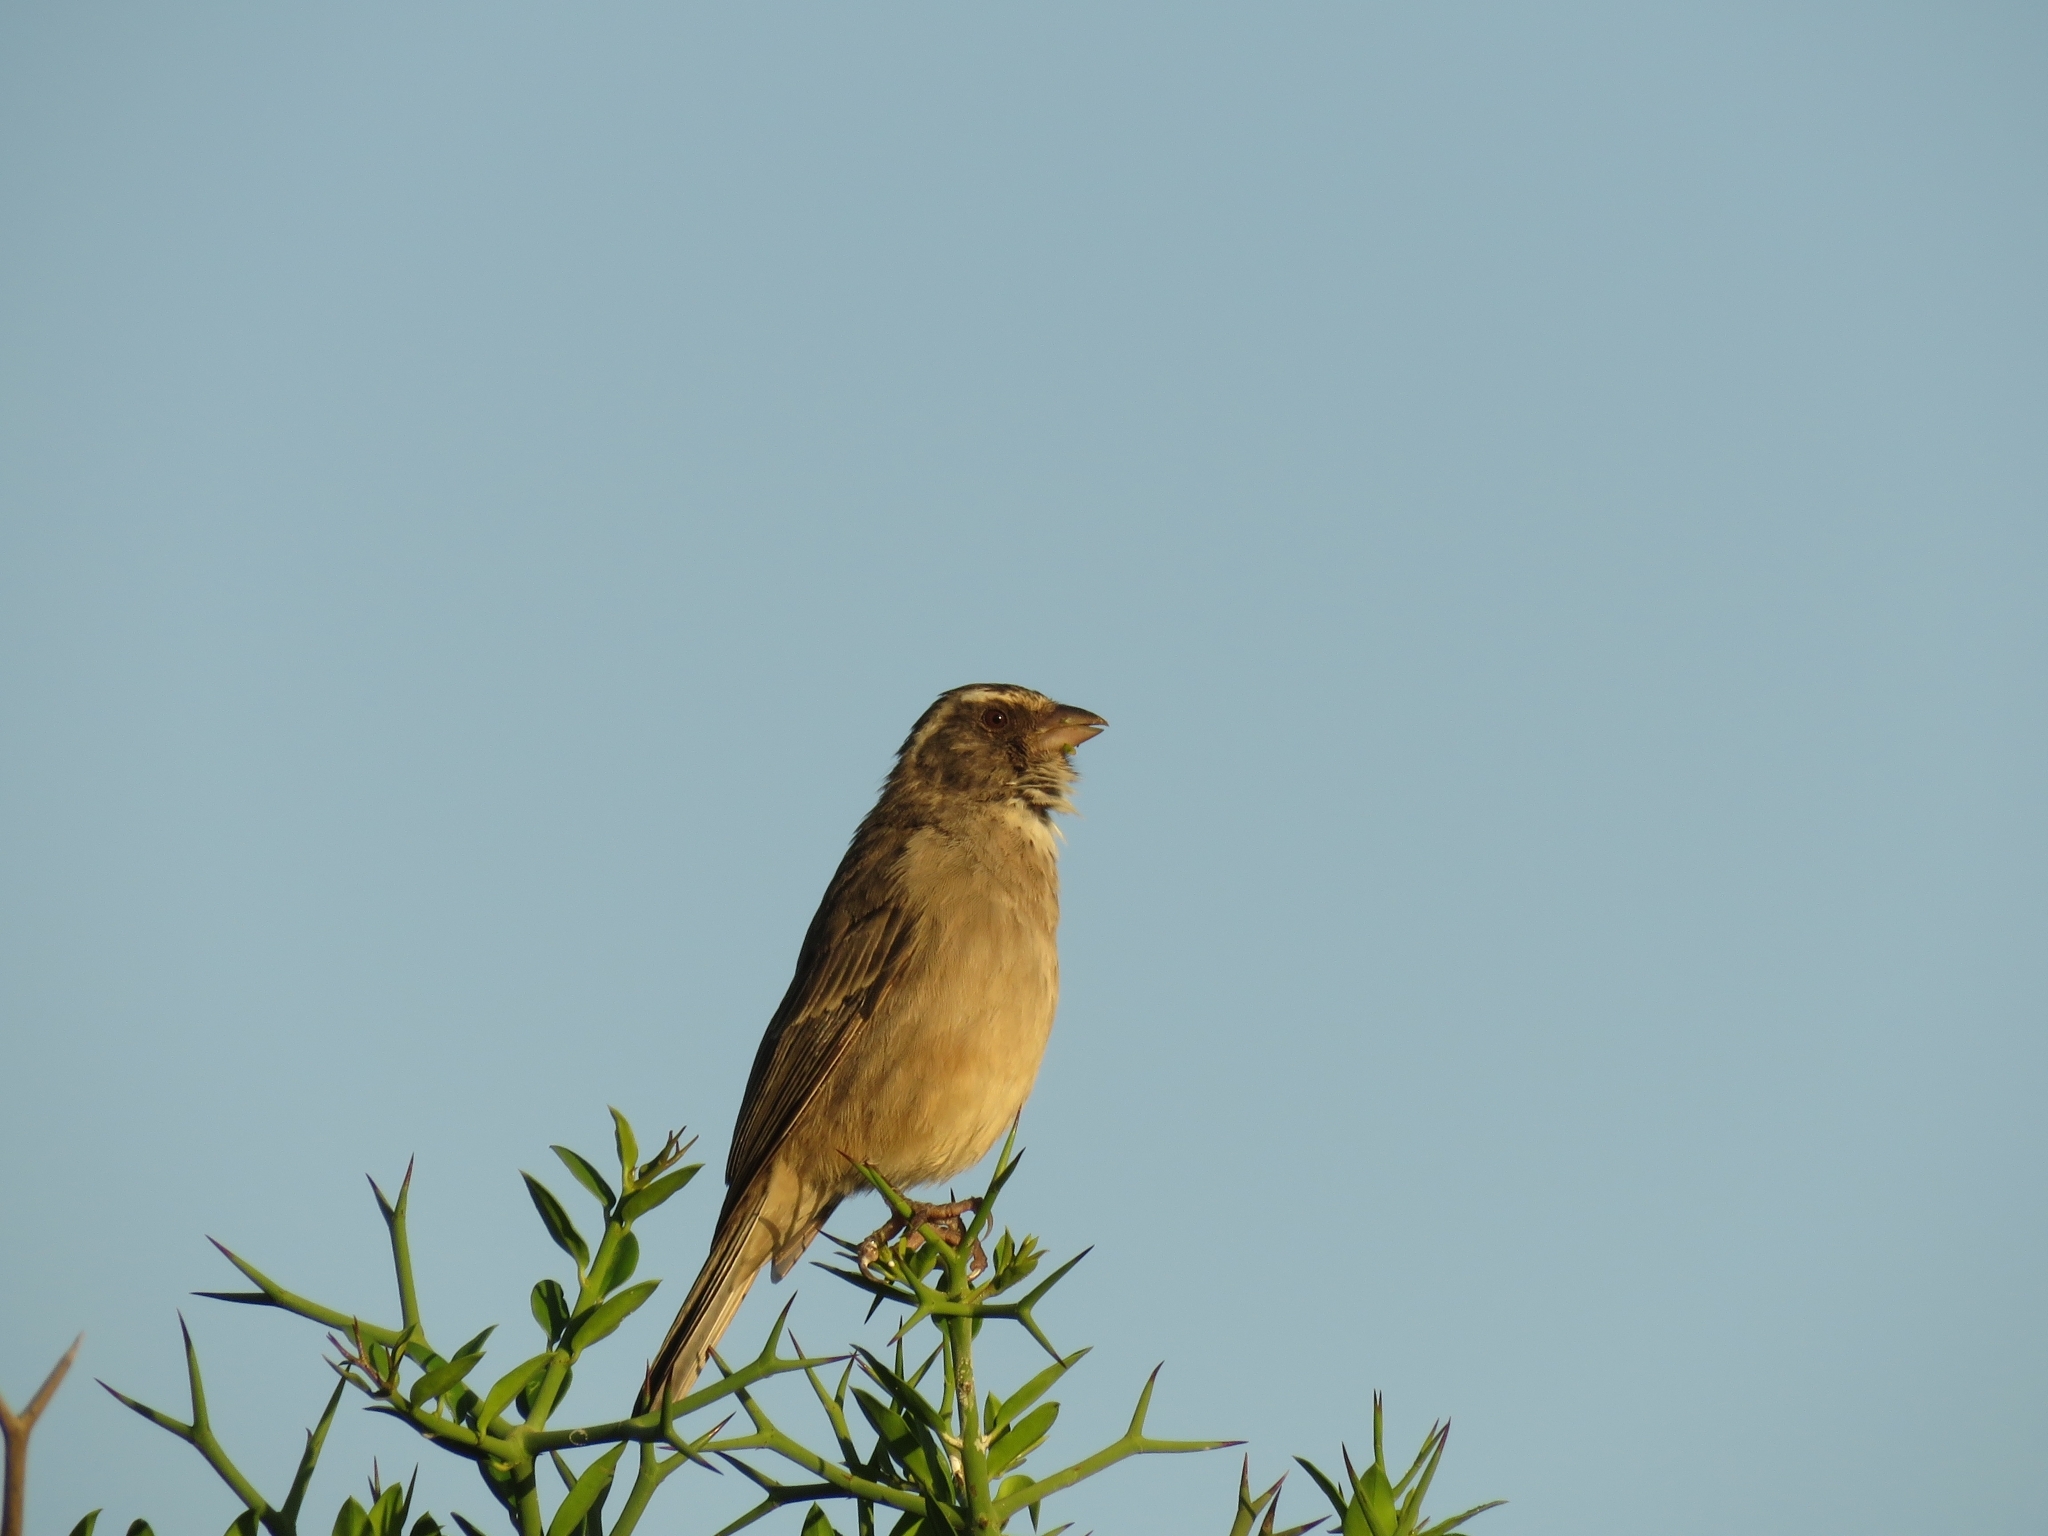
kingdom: Animalia
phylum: Chordata
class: Aves
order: Passeriformes
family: Fringillidae
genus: Crithagra
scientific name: Crithagra gularis
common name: Streaky-headed seedeater
